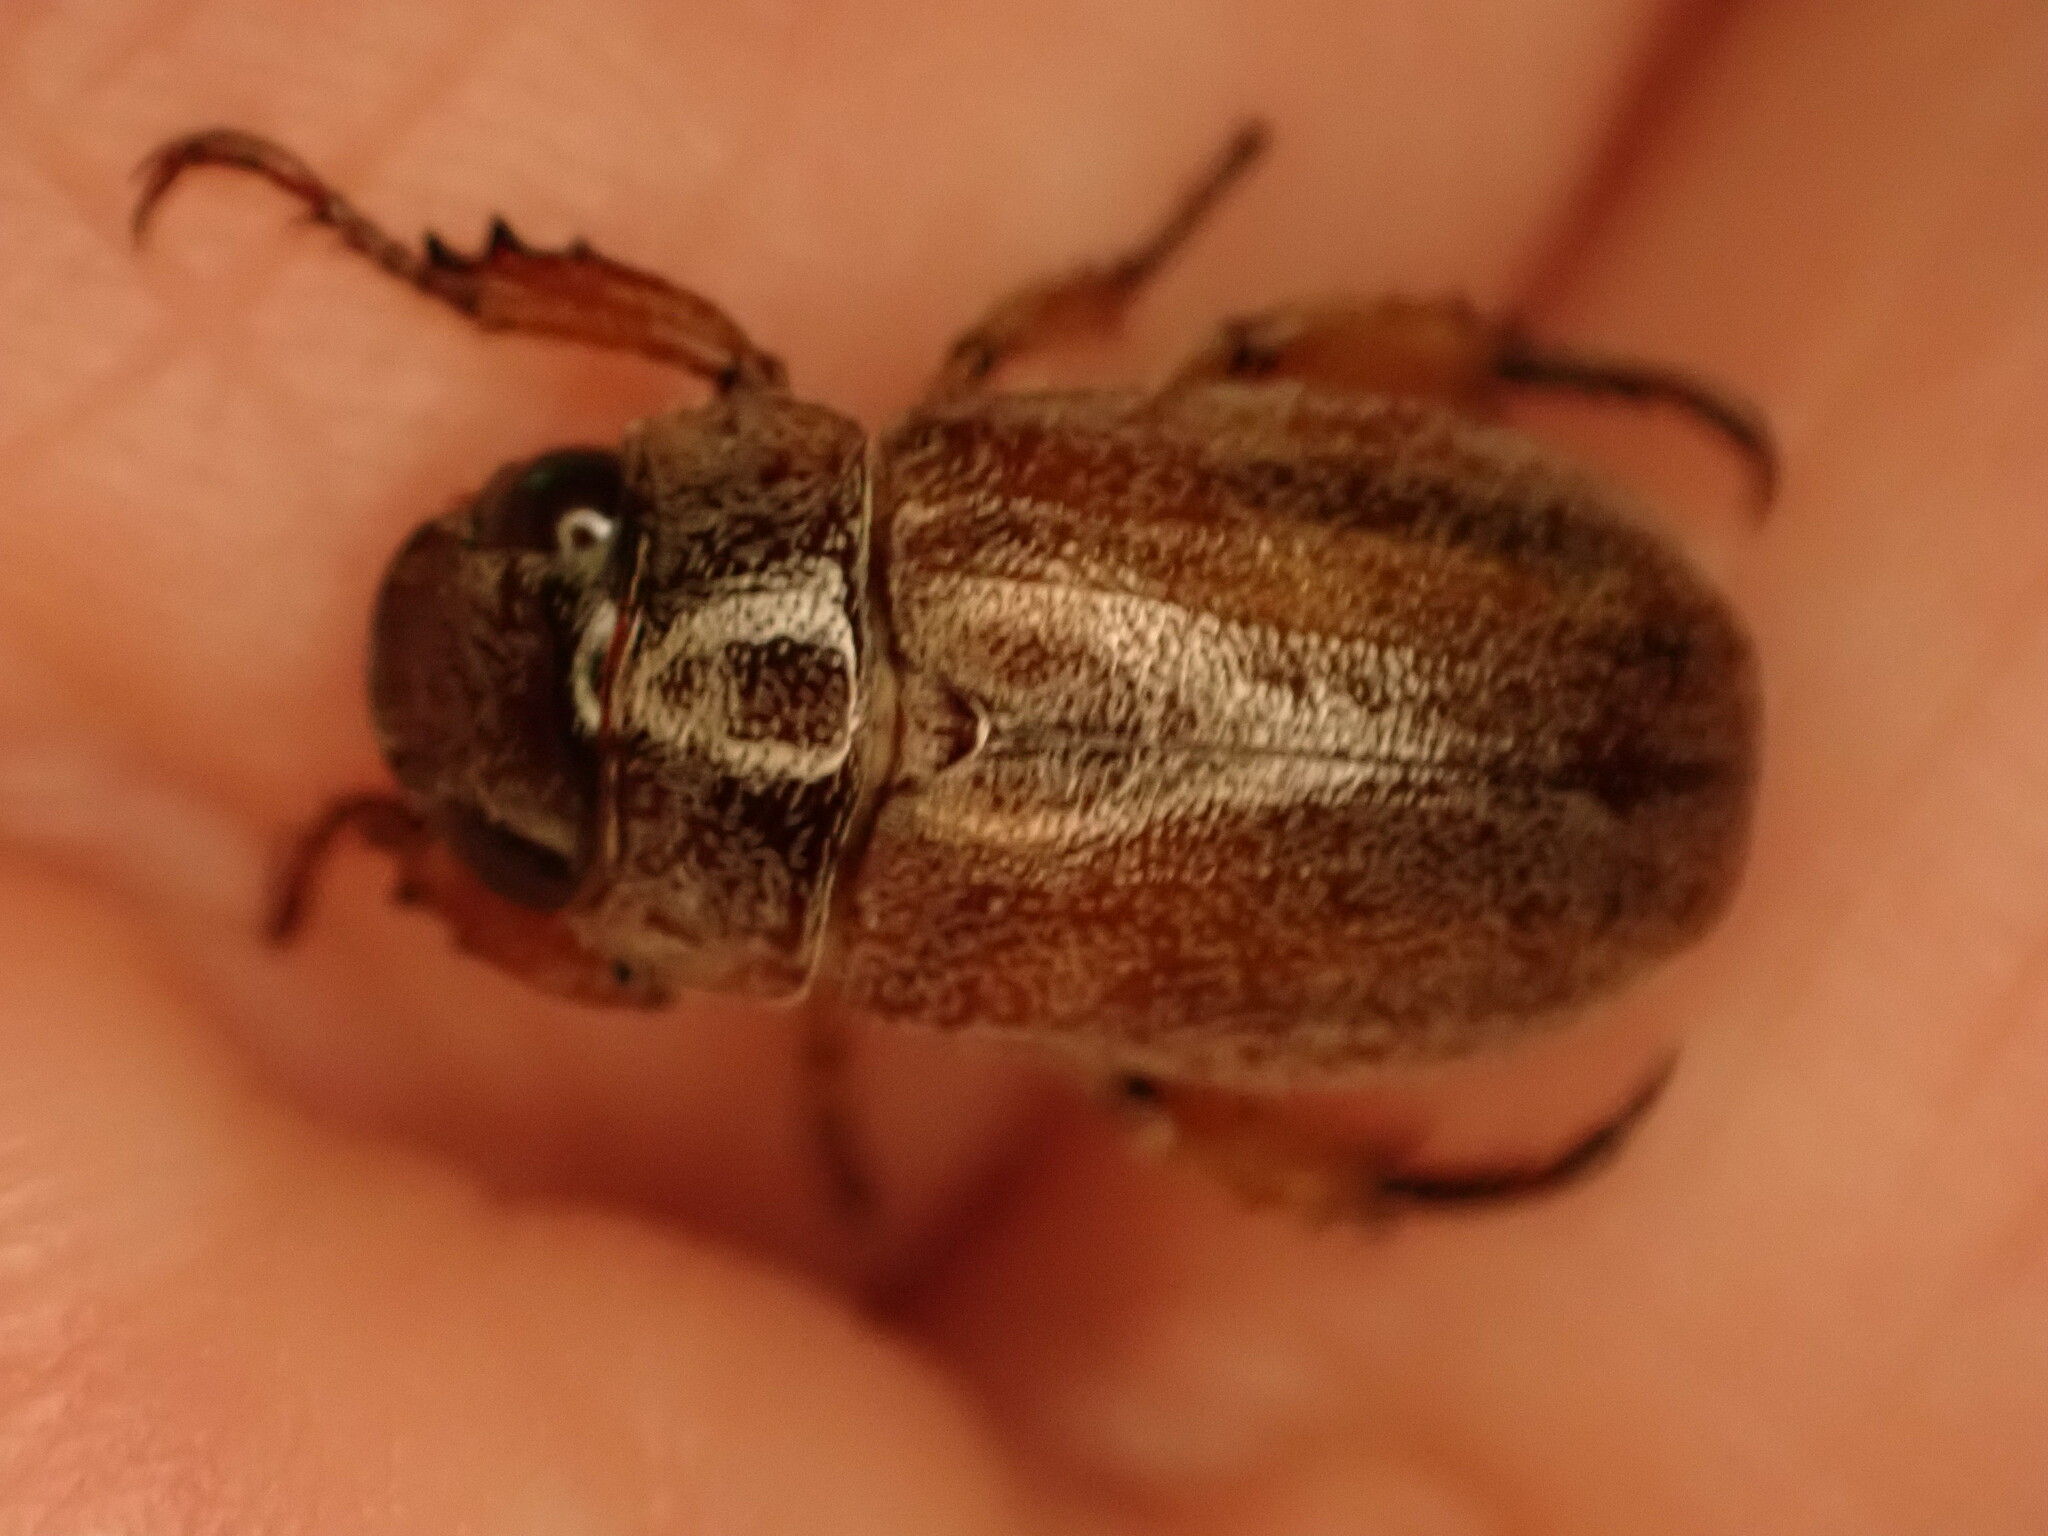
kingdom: Animalia
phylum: Arthropoda
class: Insecta
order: Coleoptera
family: Scarabaeidae
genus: Adoretus
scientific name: Adoretus sinicus
